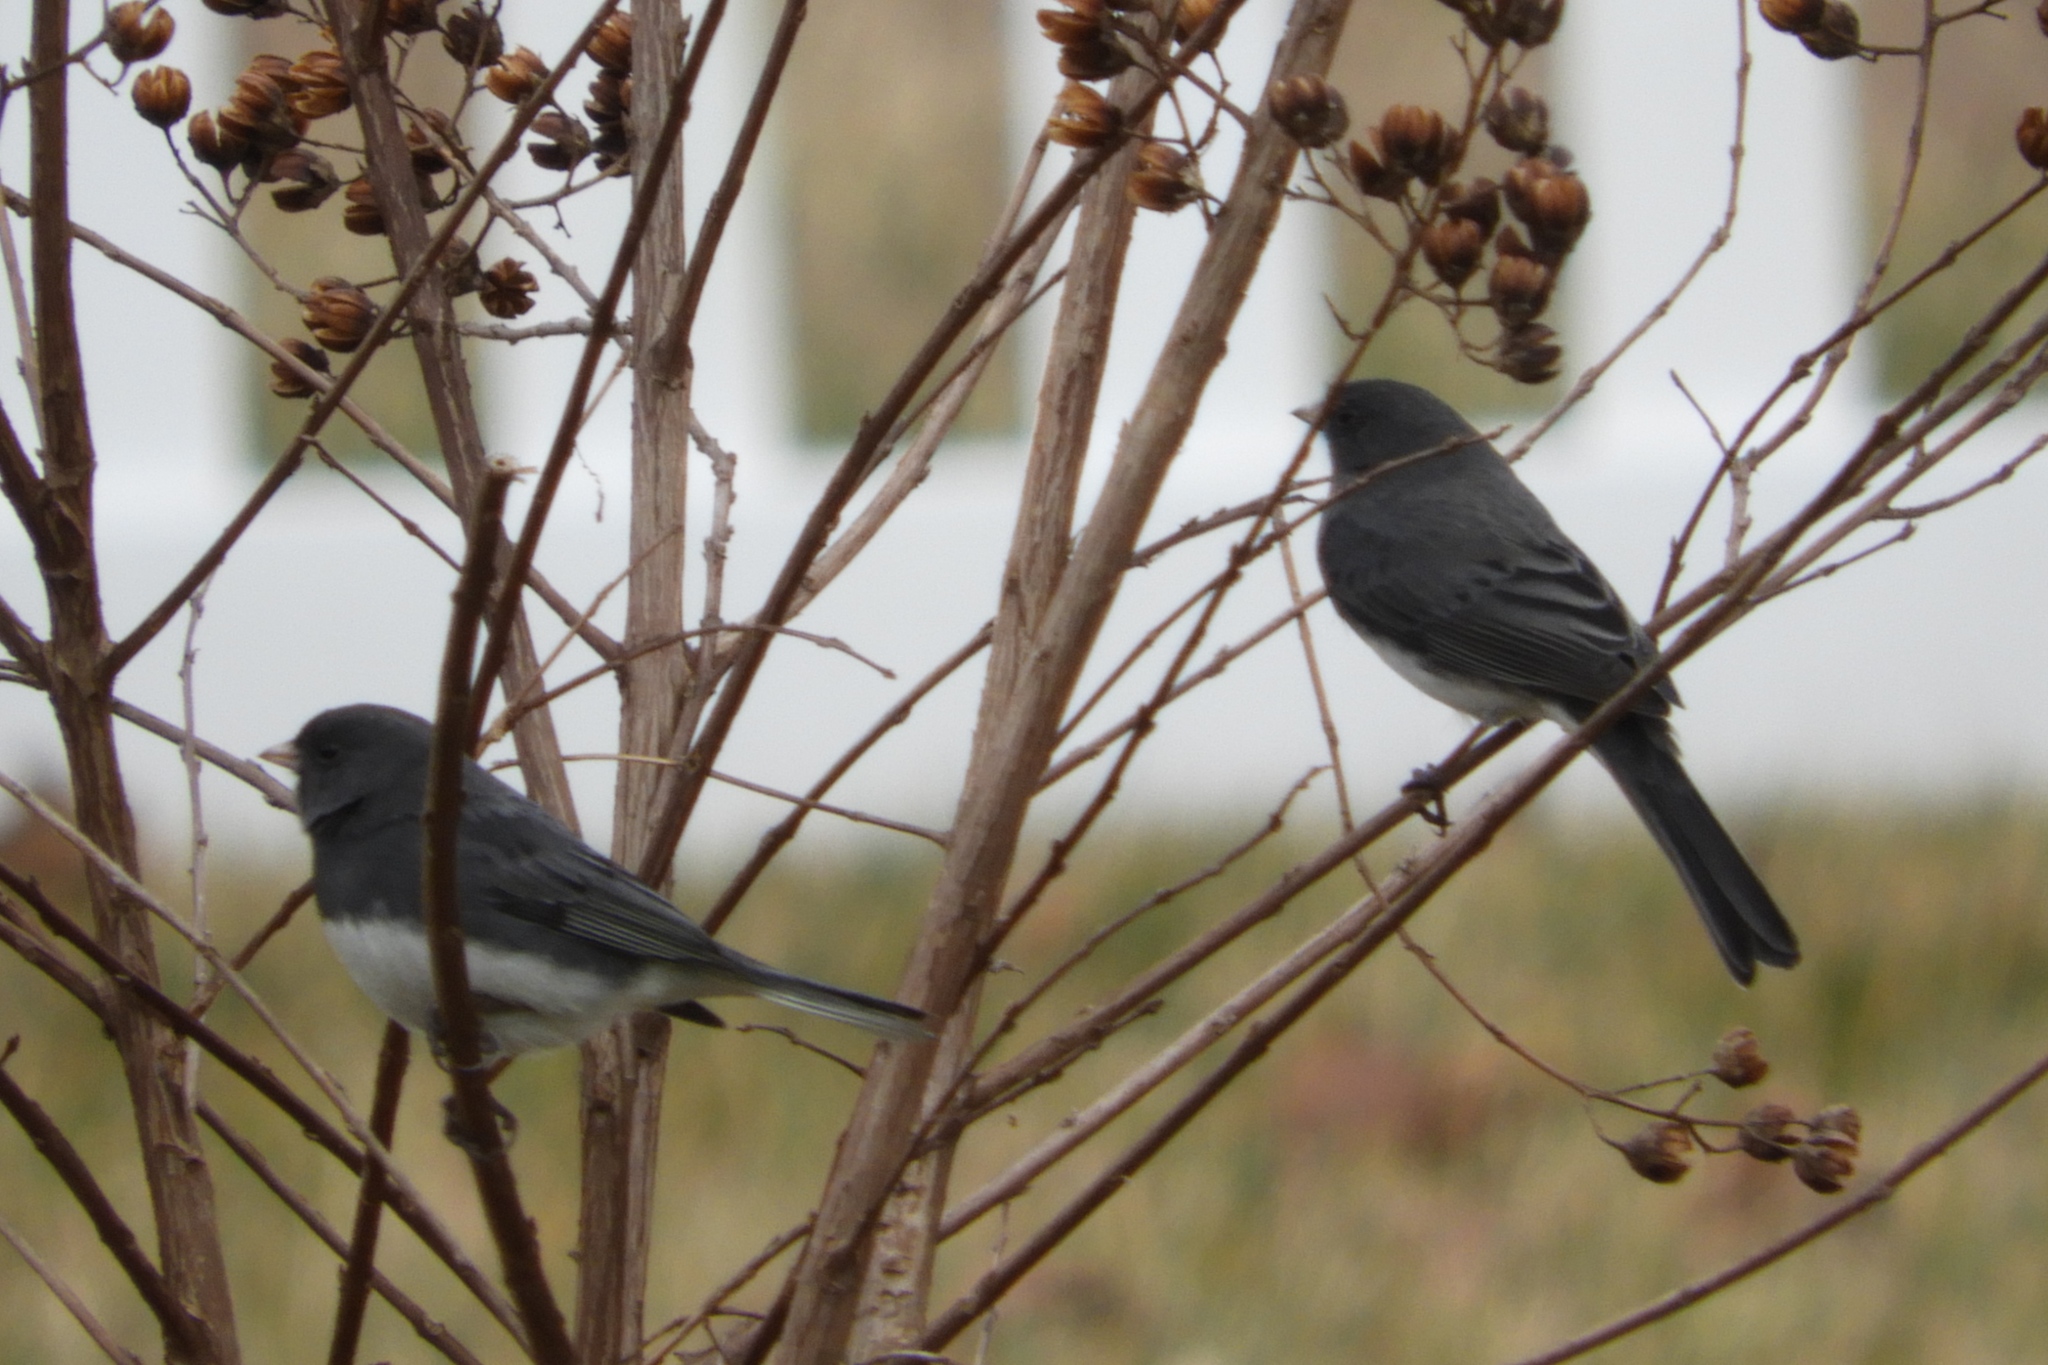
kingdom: Animalia
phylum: Chordata
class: Aves
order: Passeriformes
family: Passerellidae
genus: Junco
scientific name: Junco hyemalis
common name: Dark-eyed junco
